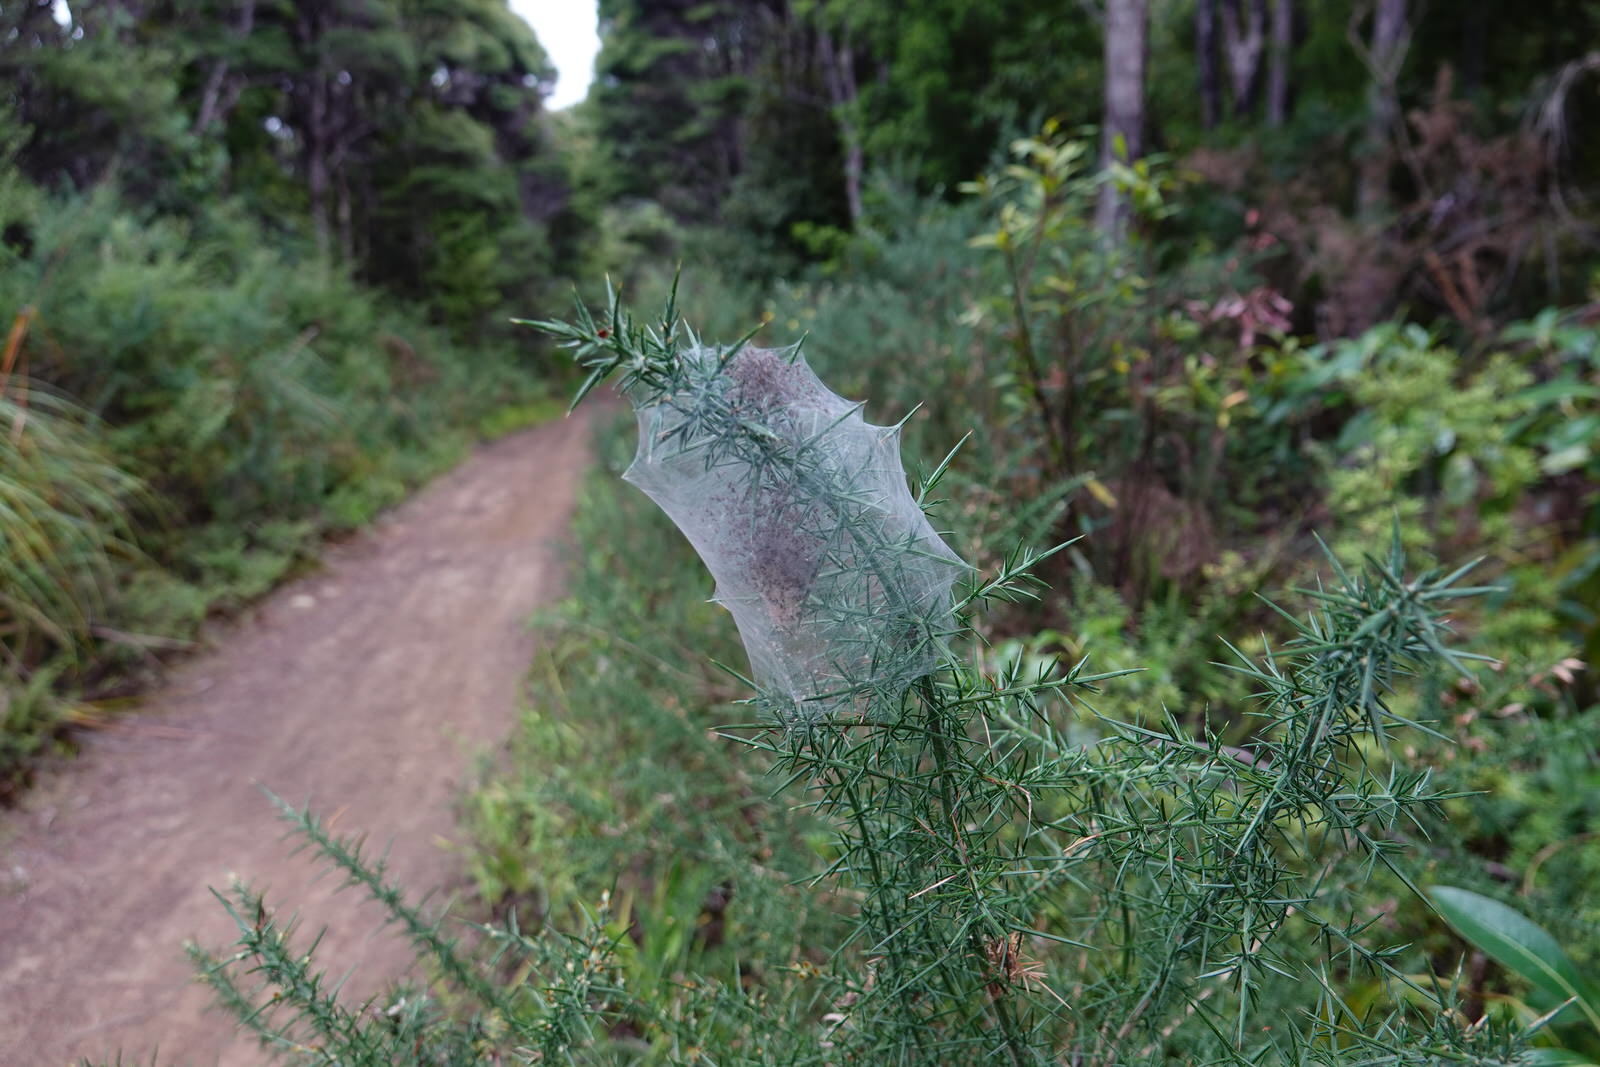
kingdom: Animalia
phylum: Arthropoda
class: Arachnida
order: Araneae
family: Pisauridae
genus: Dolomedes
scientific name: Dolomedes minor
